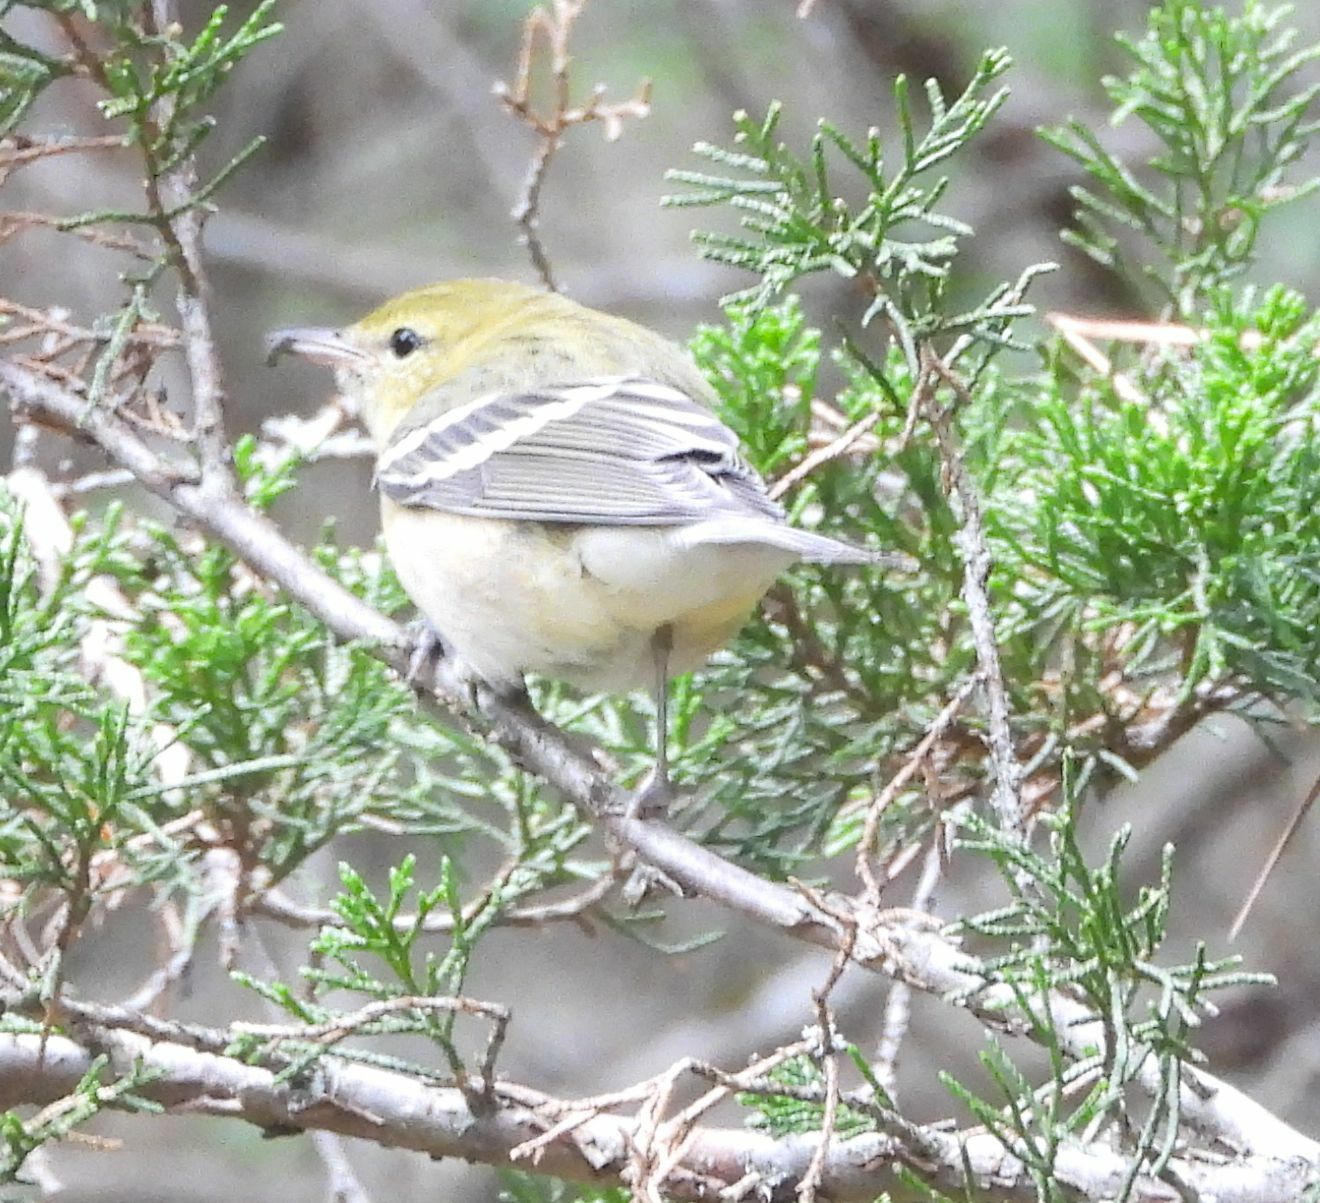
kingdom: Animalia
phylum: Chordata
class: Aves
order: Passeriformes
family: Parulidae
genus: Setophaga
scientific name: Setophaga castanea
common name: Bay-breasted warbler
